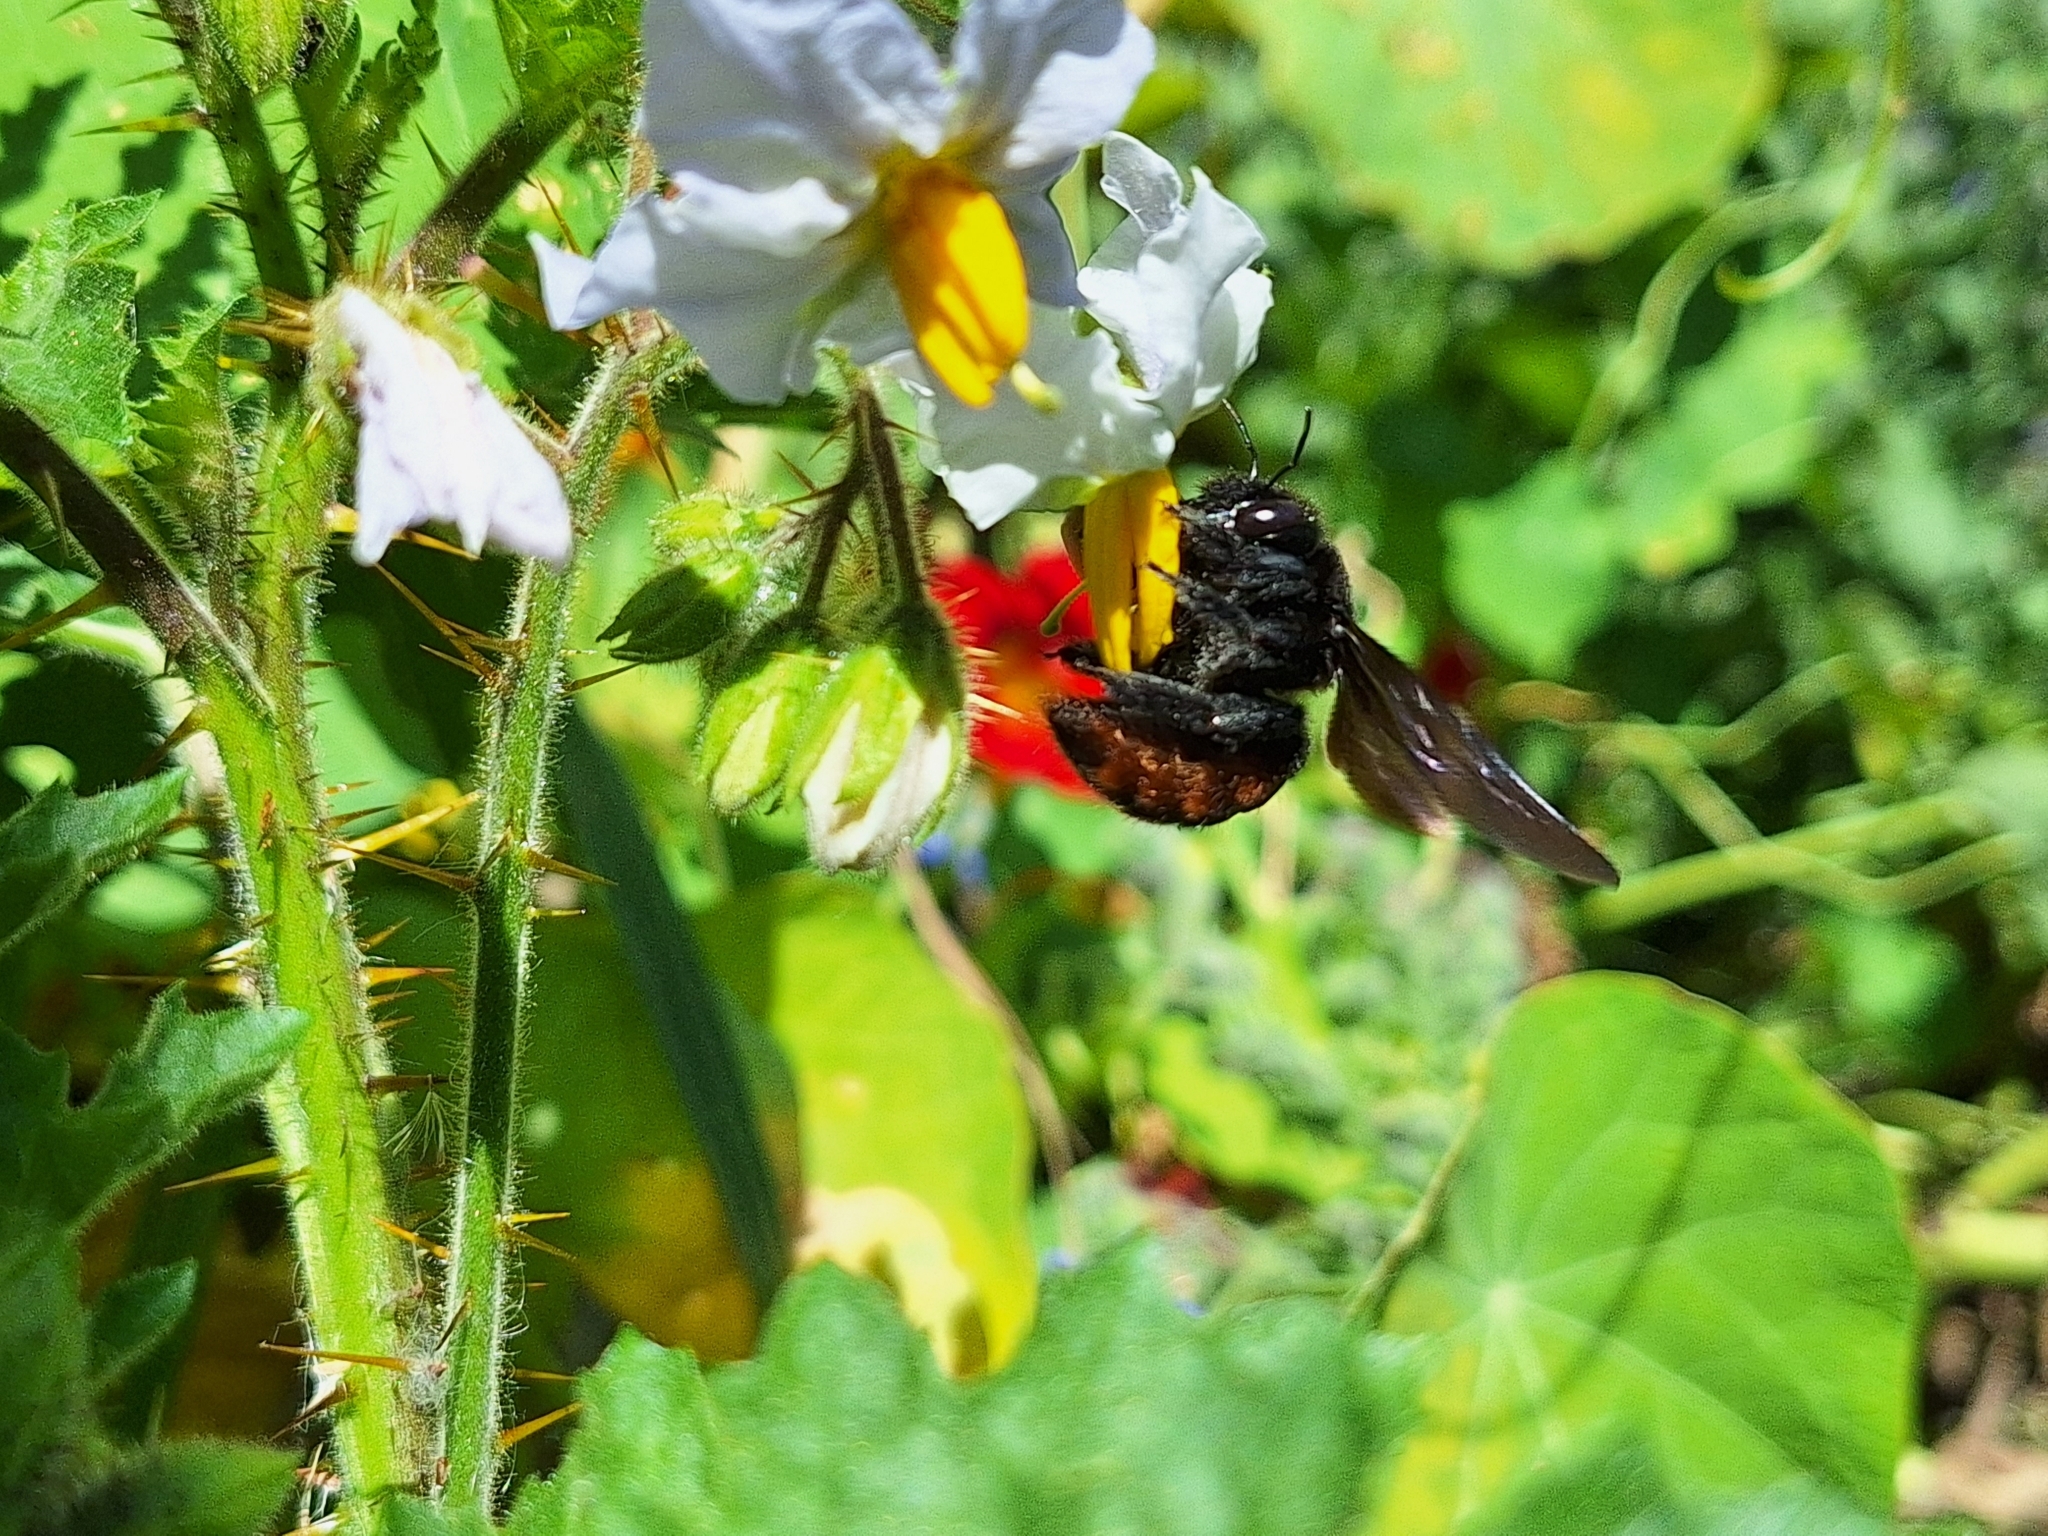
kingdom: Animalia
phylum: Arthropoda
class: Insecta
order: Hymenoptera
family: Apidae
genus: Xylocopa
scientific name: Xylocopa augusti
